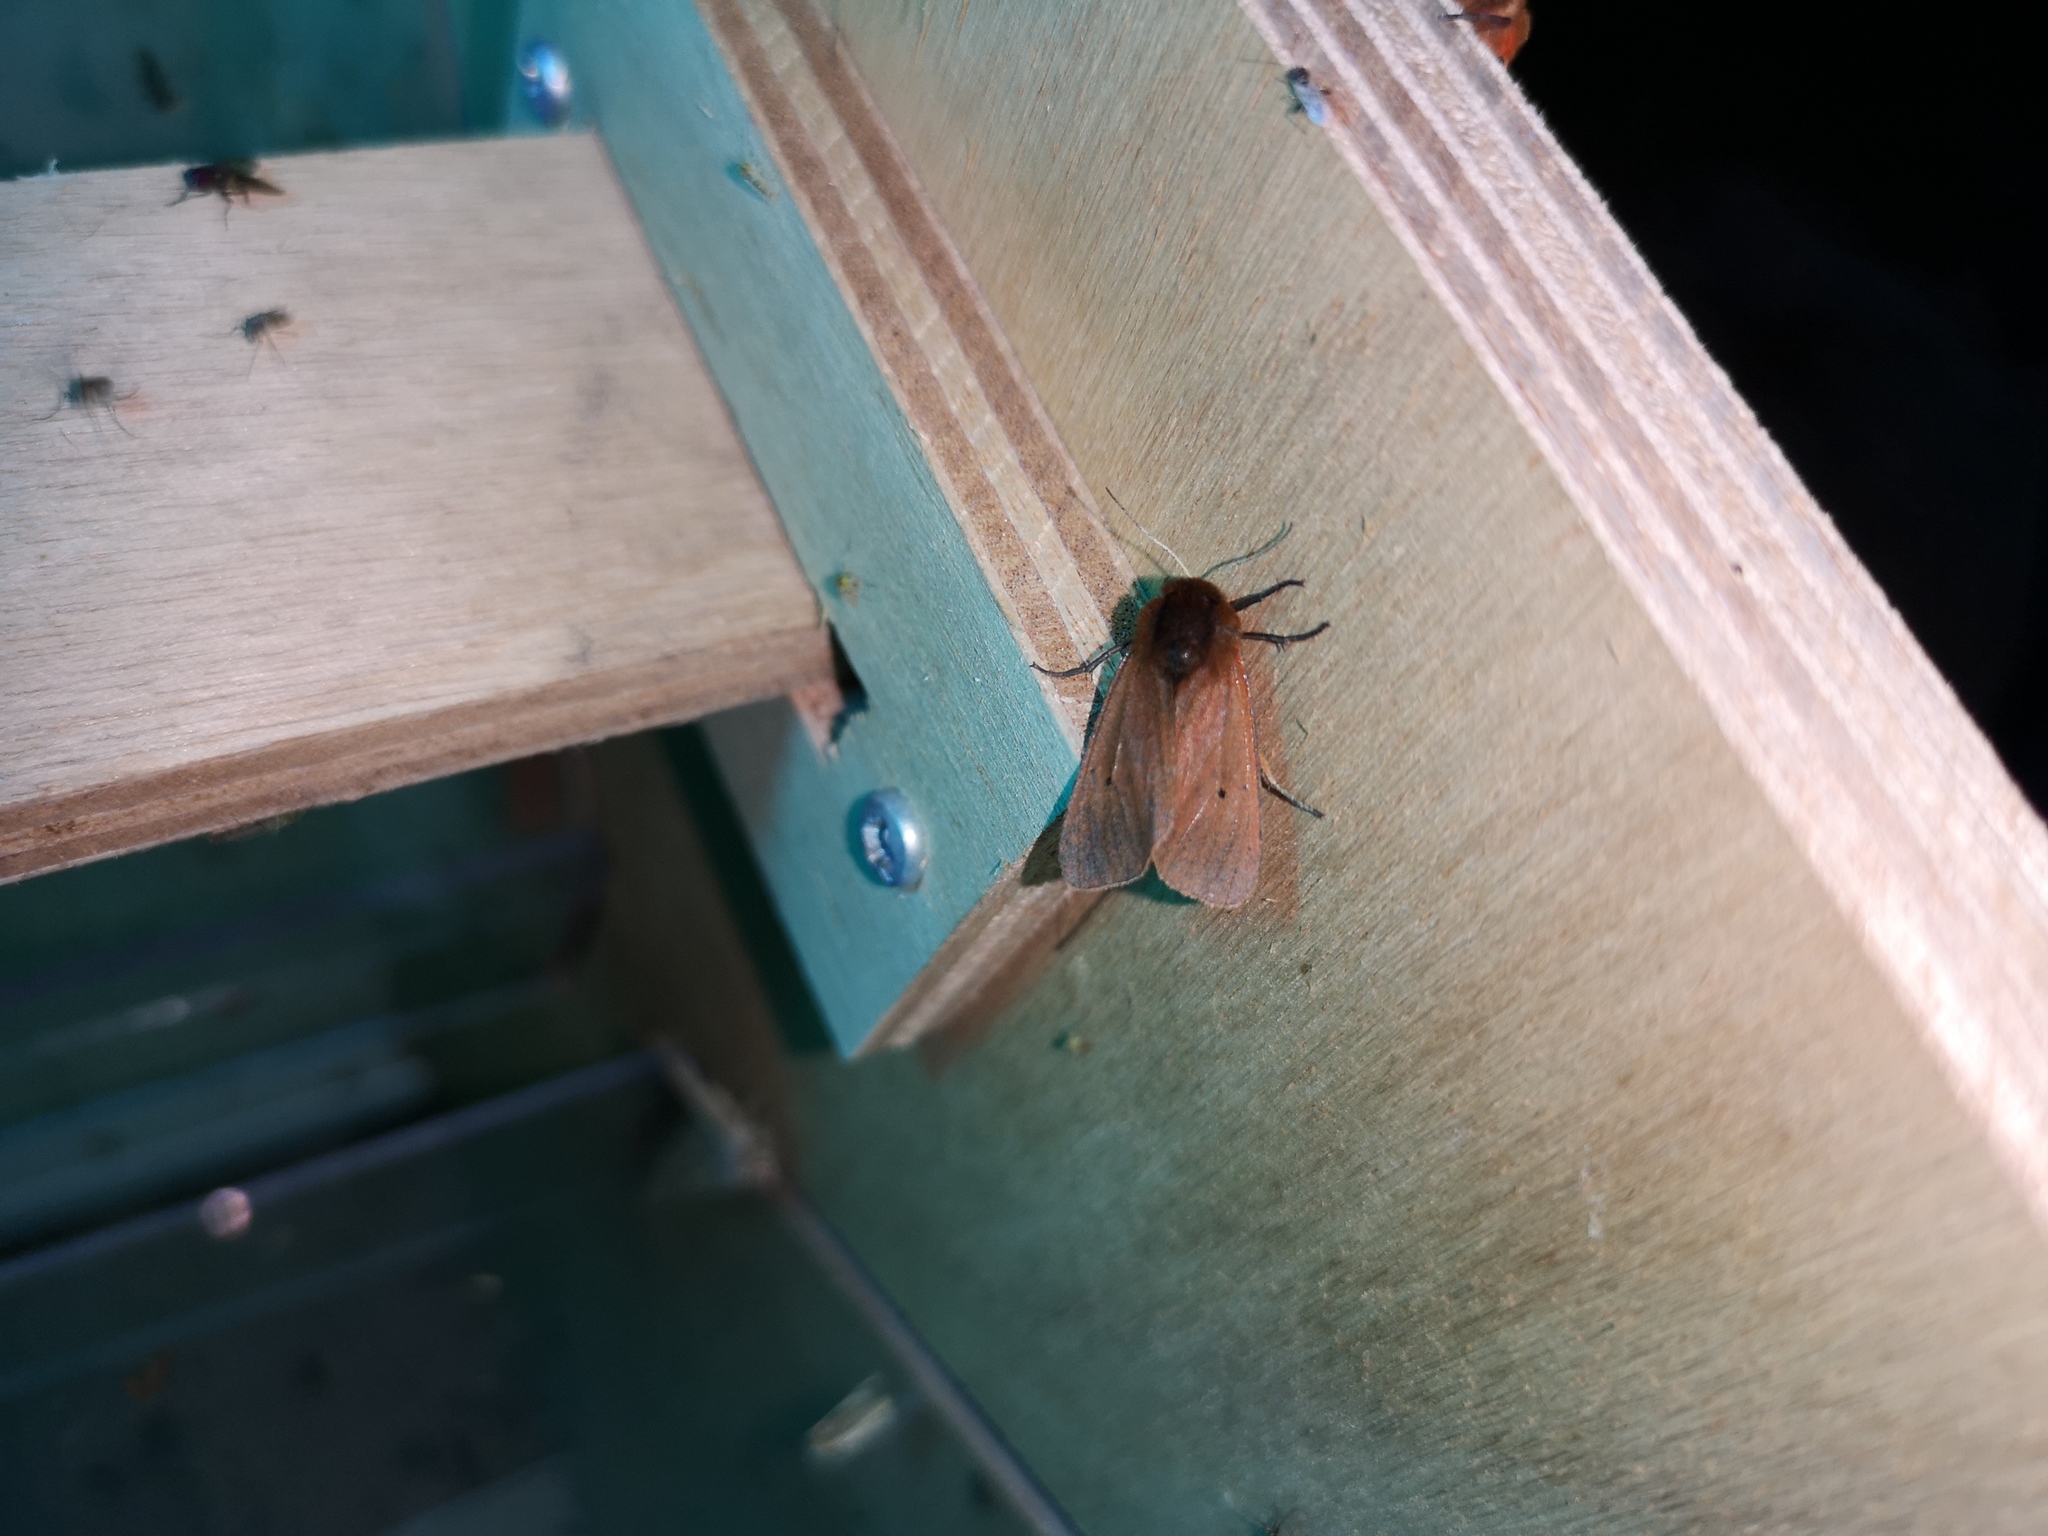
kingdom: Animalia
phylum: Arthropoda
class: Insecta
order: Lepidoptera
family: Erebidae
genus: Phragmatobia
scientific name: Phragmatobia fuliginosa
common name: Ruby tiger
